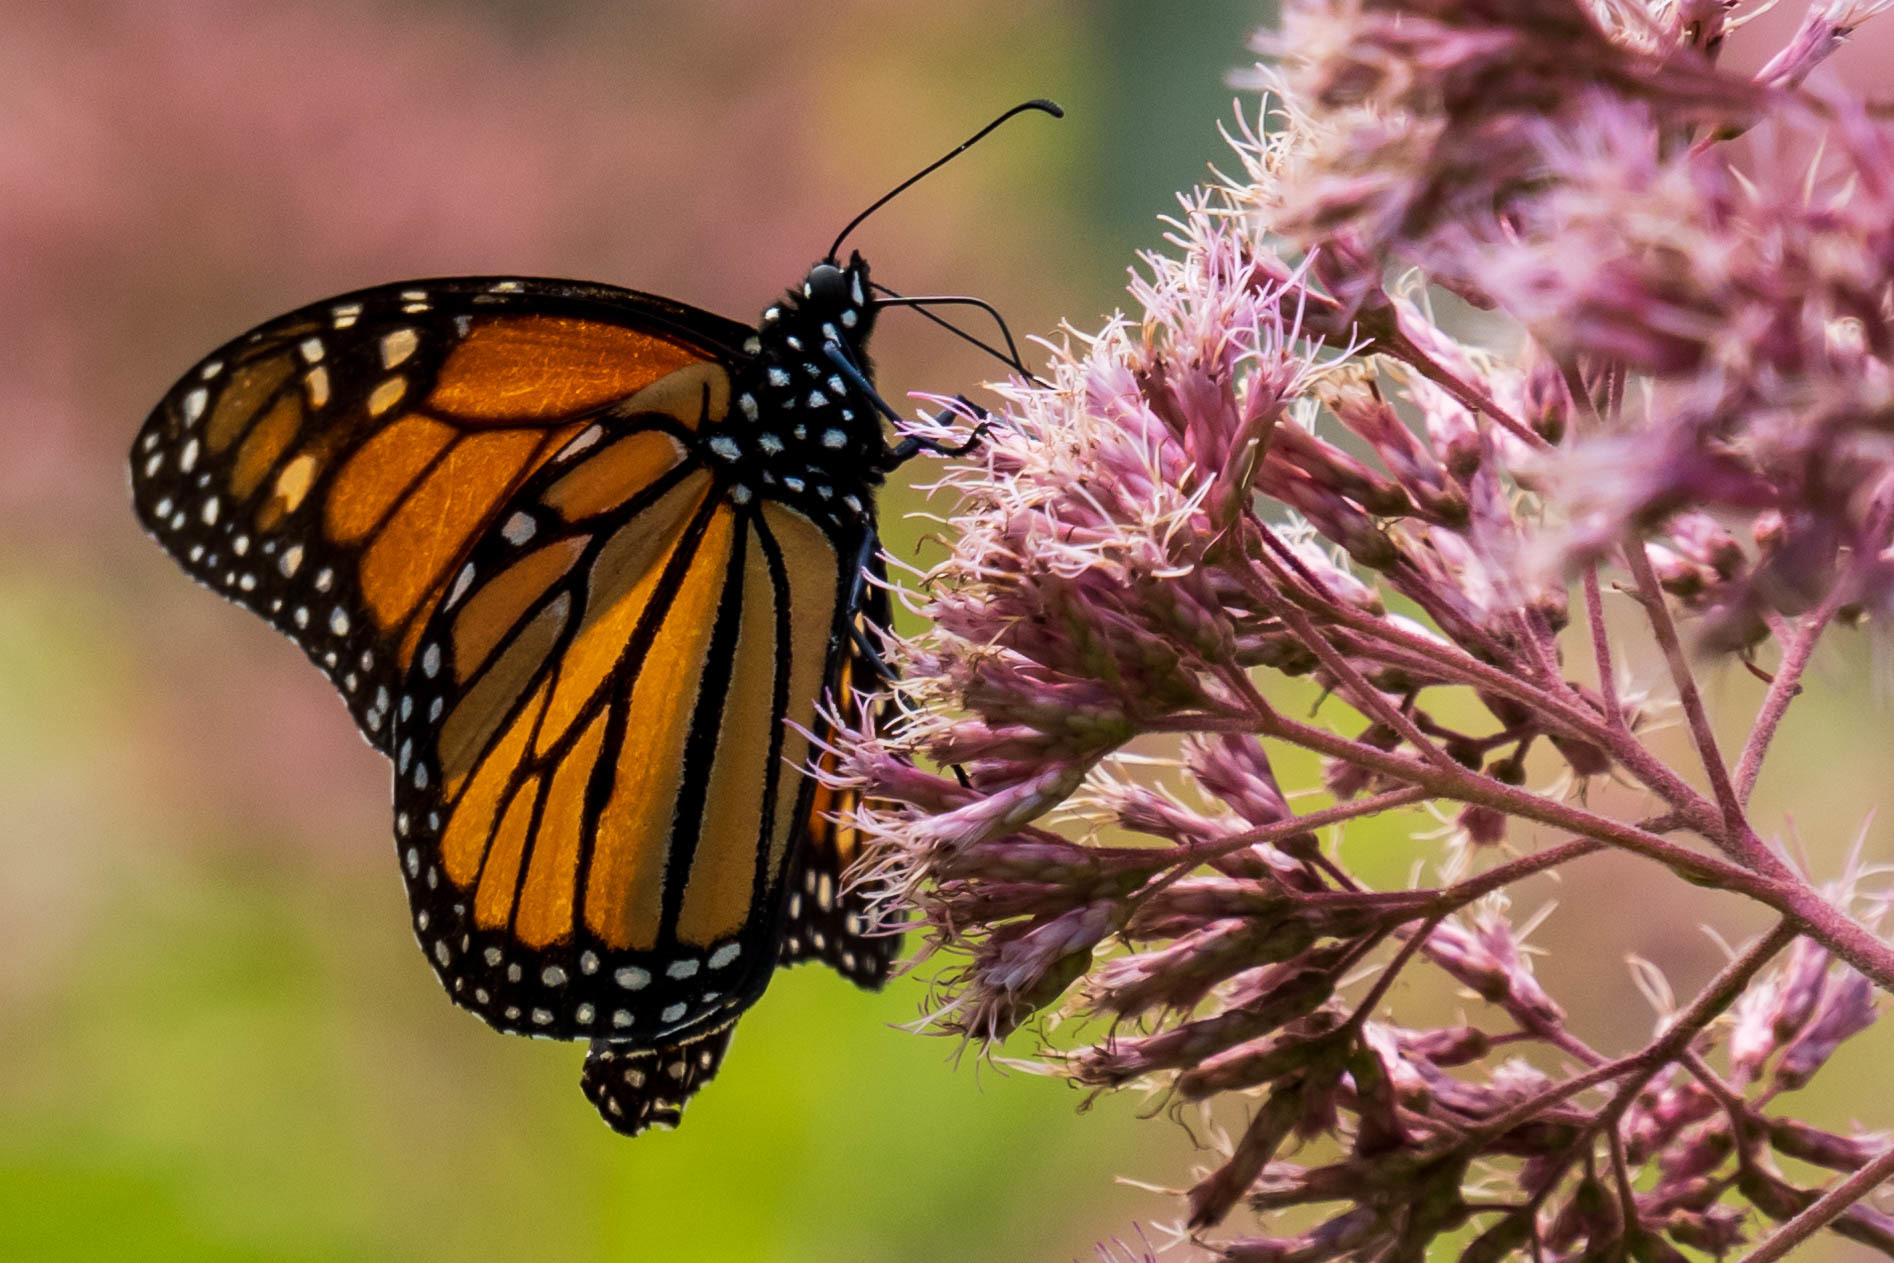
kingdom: Animalia
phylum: Arthropoda
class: Insecta
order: Lepidoptera
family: Nymphalidae
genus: Danaus
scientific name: Danaus plexippus
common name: Monarch
